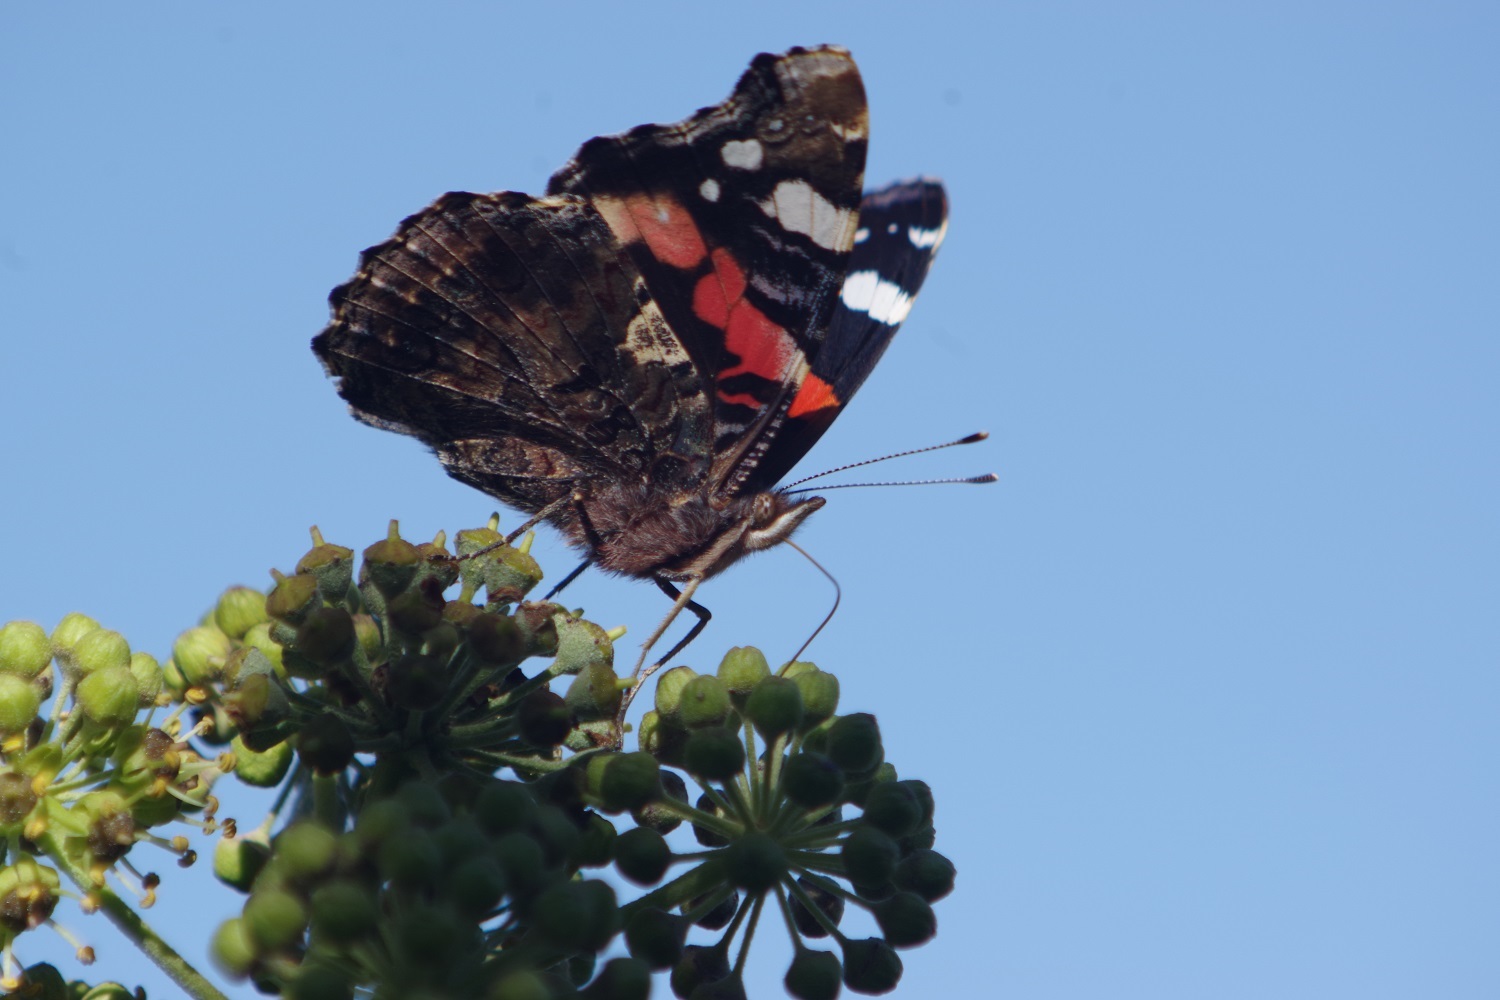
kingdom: Animalia
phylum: Arthropoda
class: Insecta
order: Lepidoptera
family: Nymphalidae
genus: Vanessa
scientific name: Vanessa atalanta
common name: Red admiral
